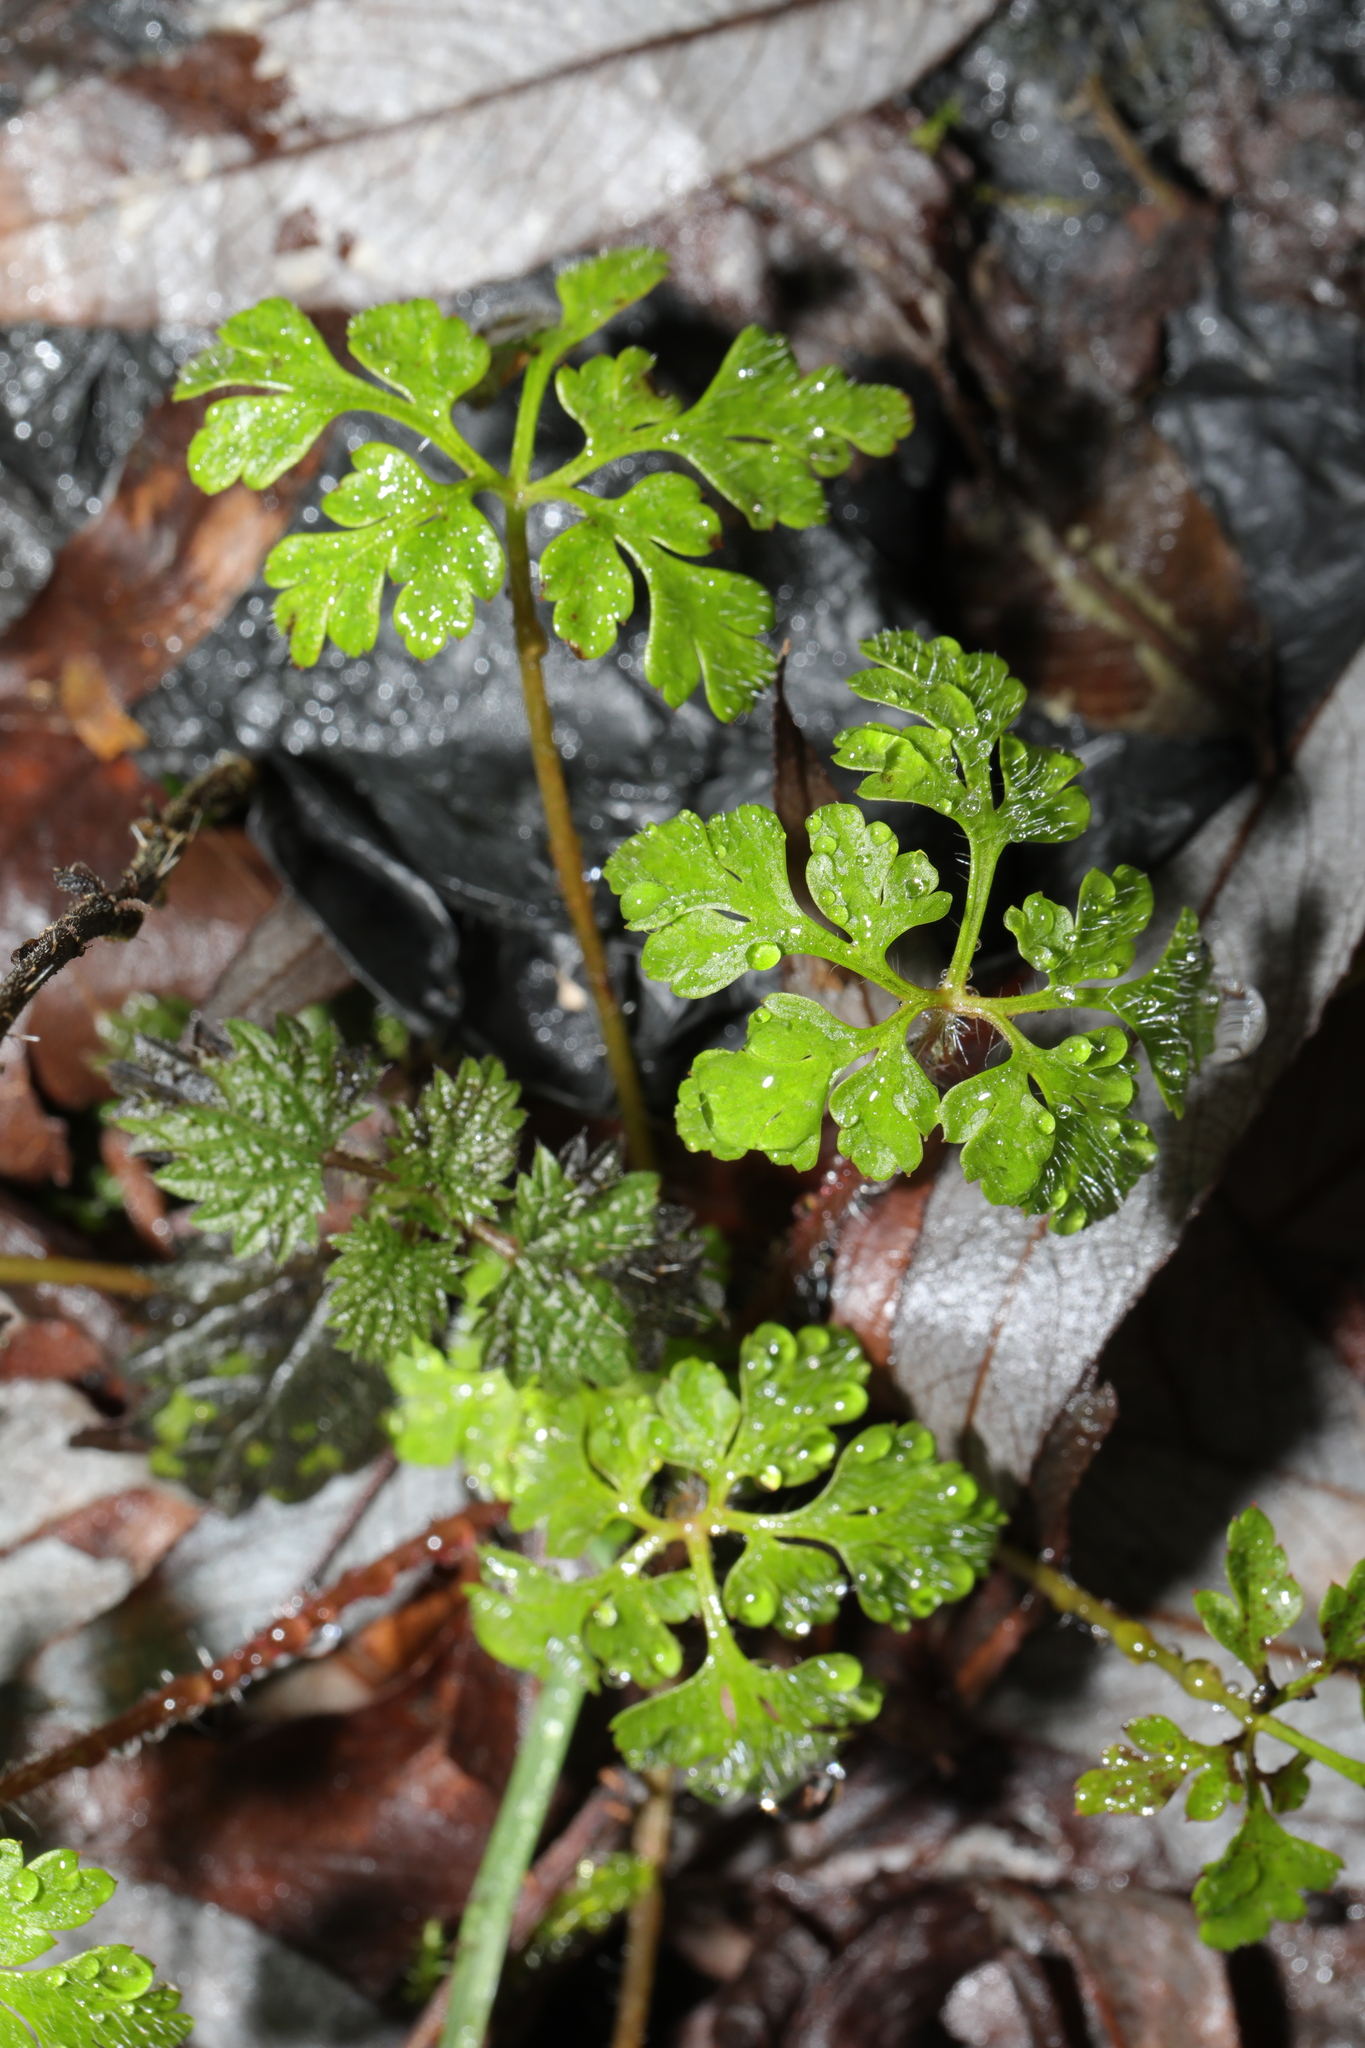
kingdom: Plantae
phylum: Tracheophyta
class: Magnoliopsida
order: Geraniales
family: Geraniaceae
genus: Geranium
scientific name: Geranium robertianum
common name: Herb-robert
